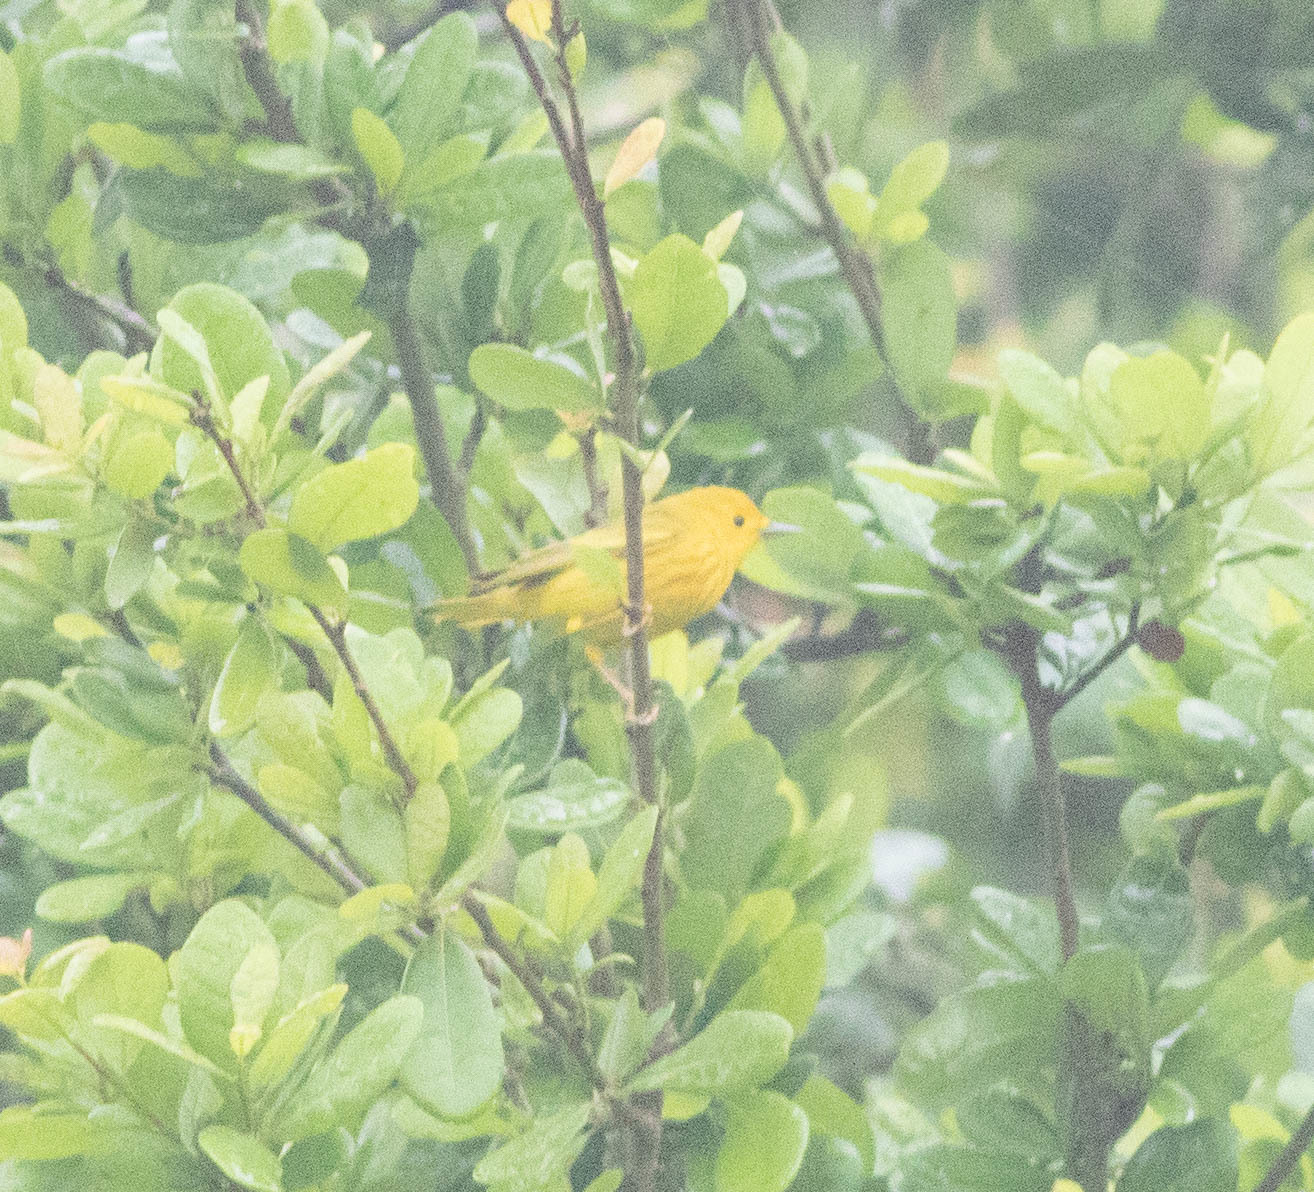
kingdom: Animalia
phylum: Chordata
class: Aves
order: Passeriformes
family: Parulidae
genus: Setophaga
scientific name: Setophaga petechia
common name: Yellow warbler
